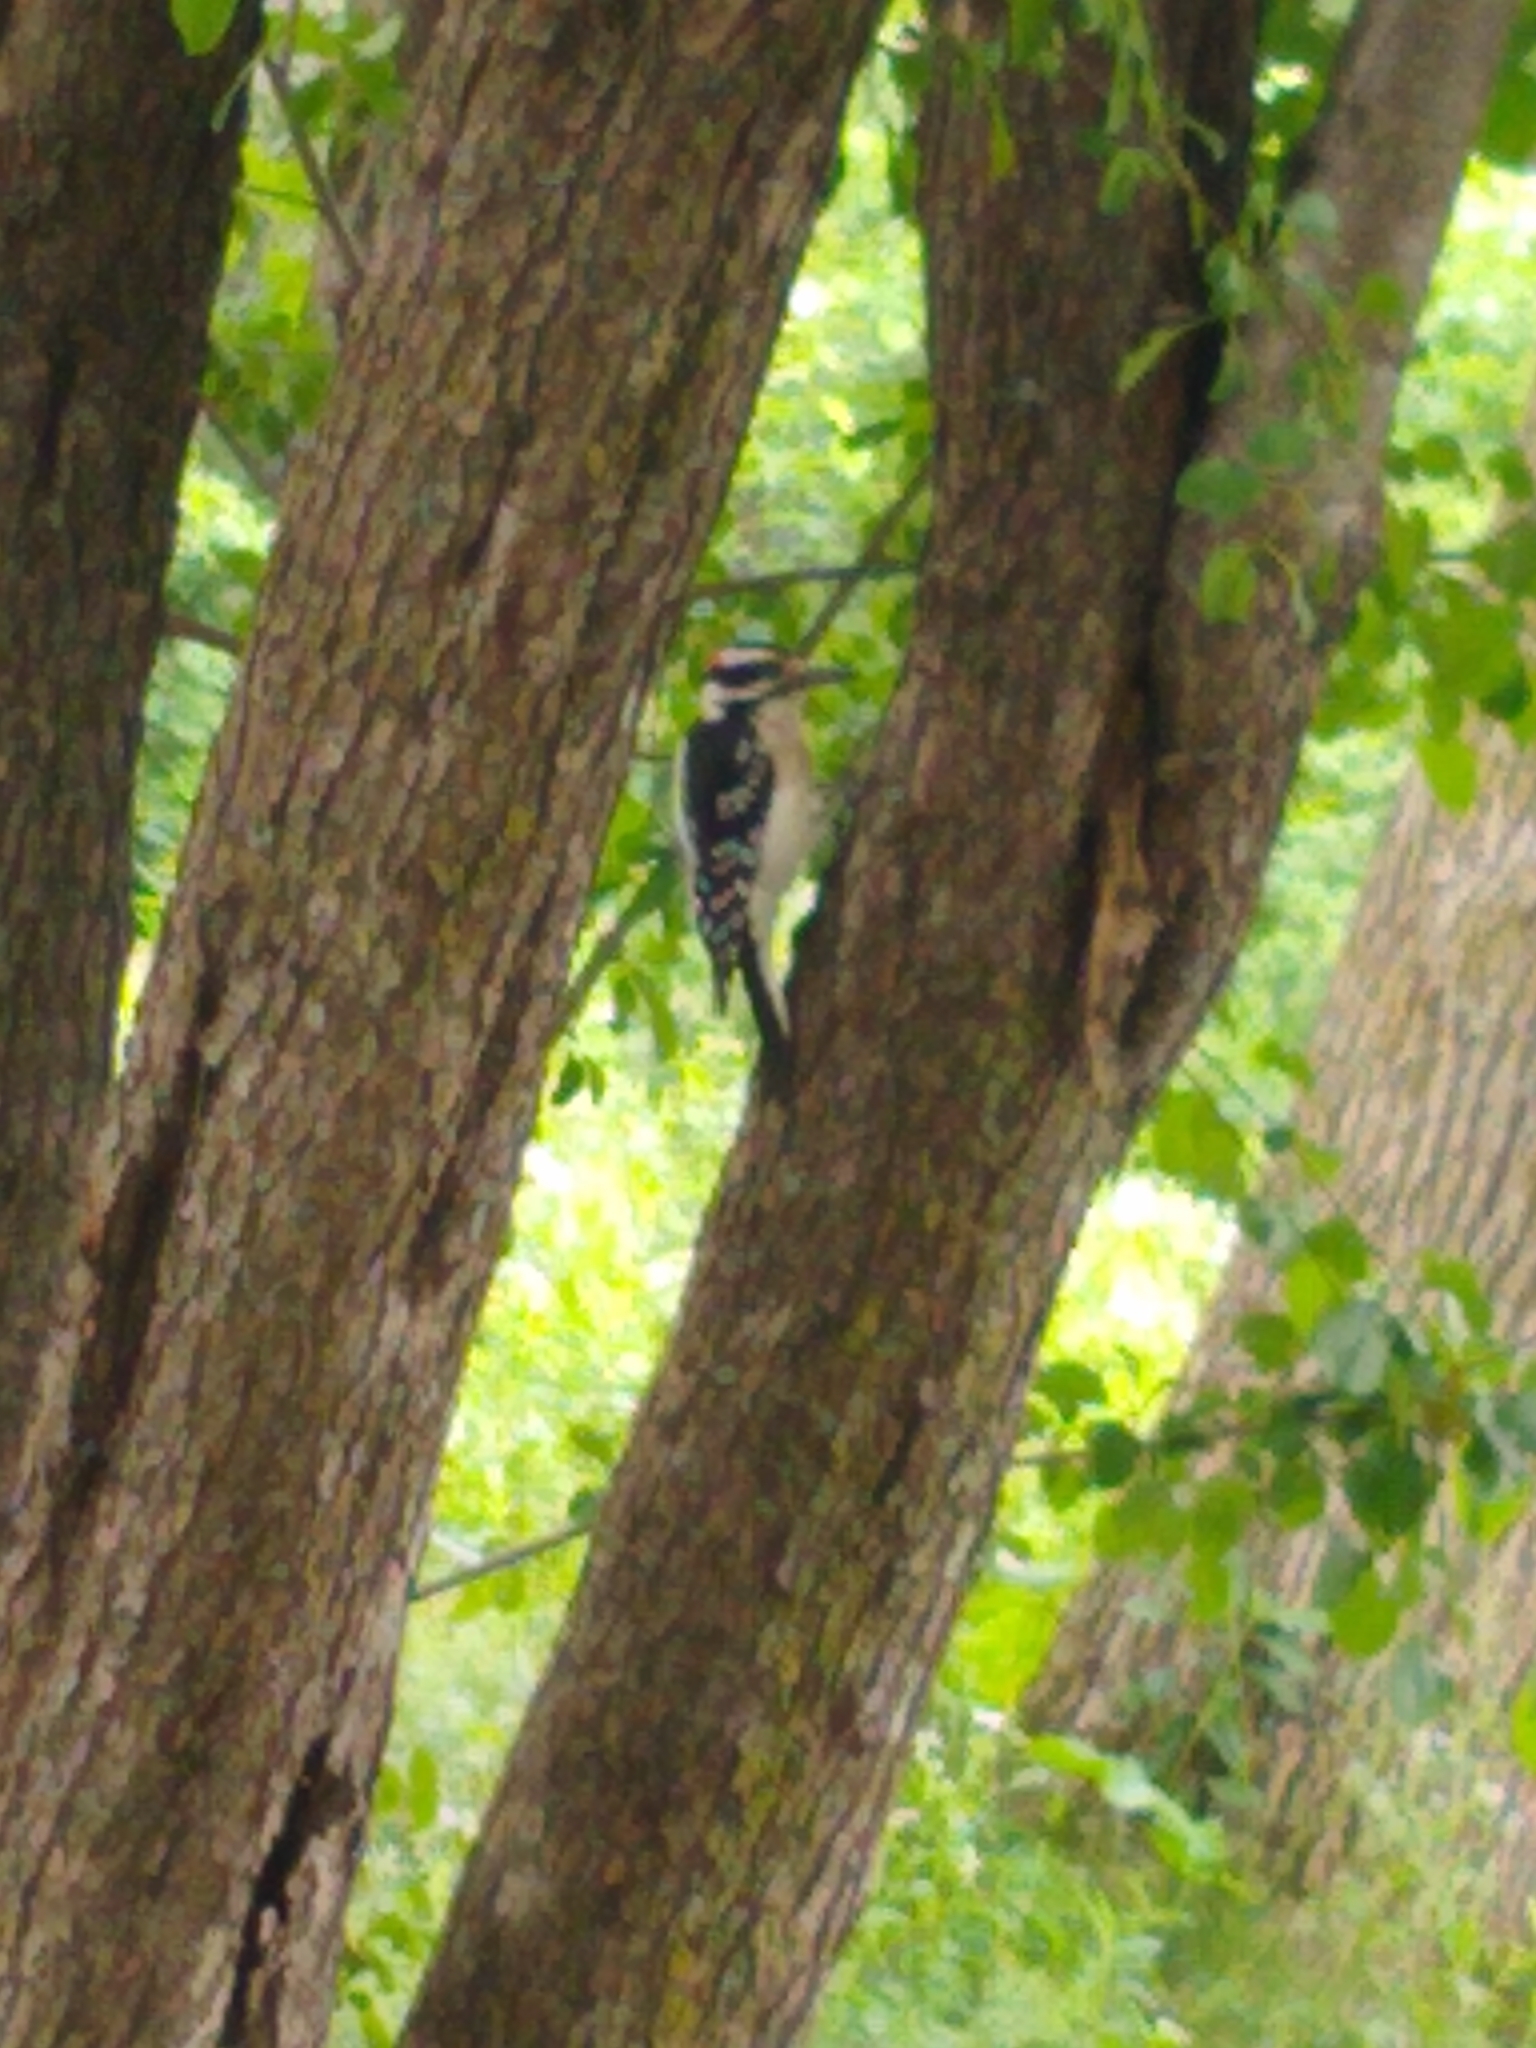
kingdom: Animalia
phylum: Chordata
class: Aves
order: Piciformes
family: Picidae
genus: Leuconotopicus
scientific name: Leuconotopicus villosus
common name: Hairy woodpecker
